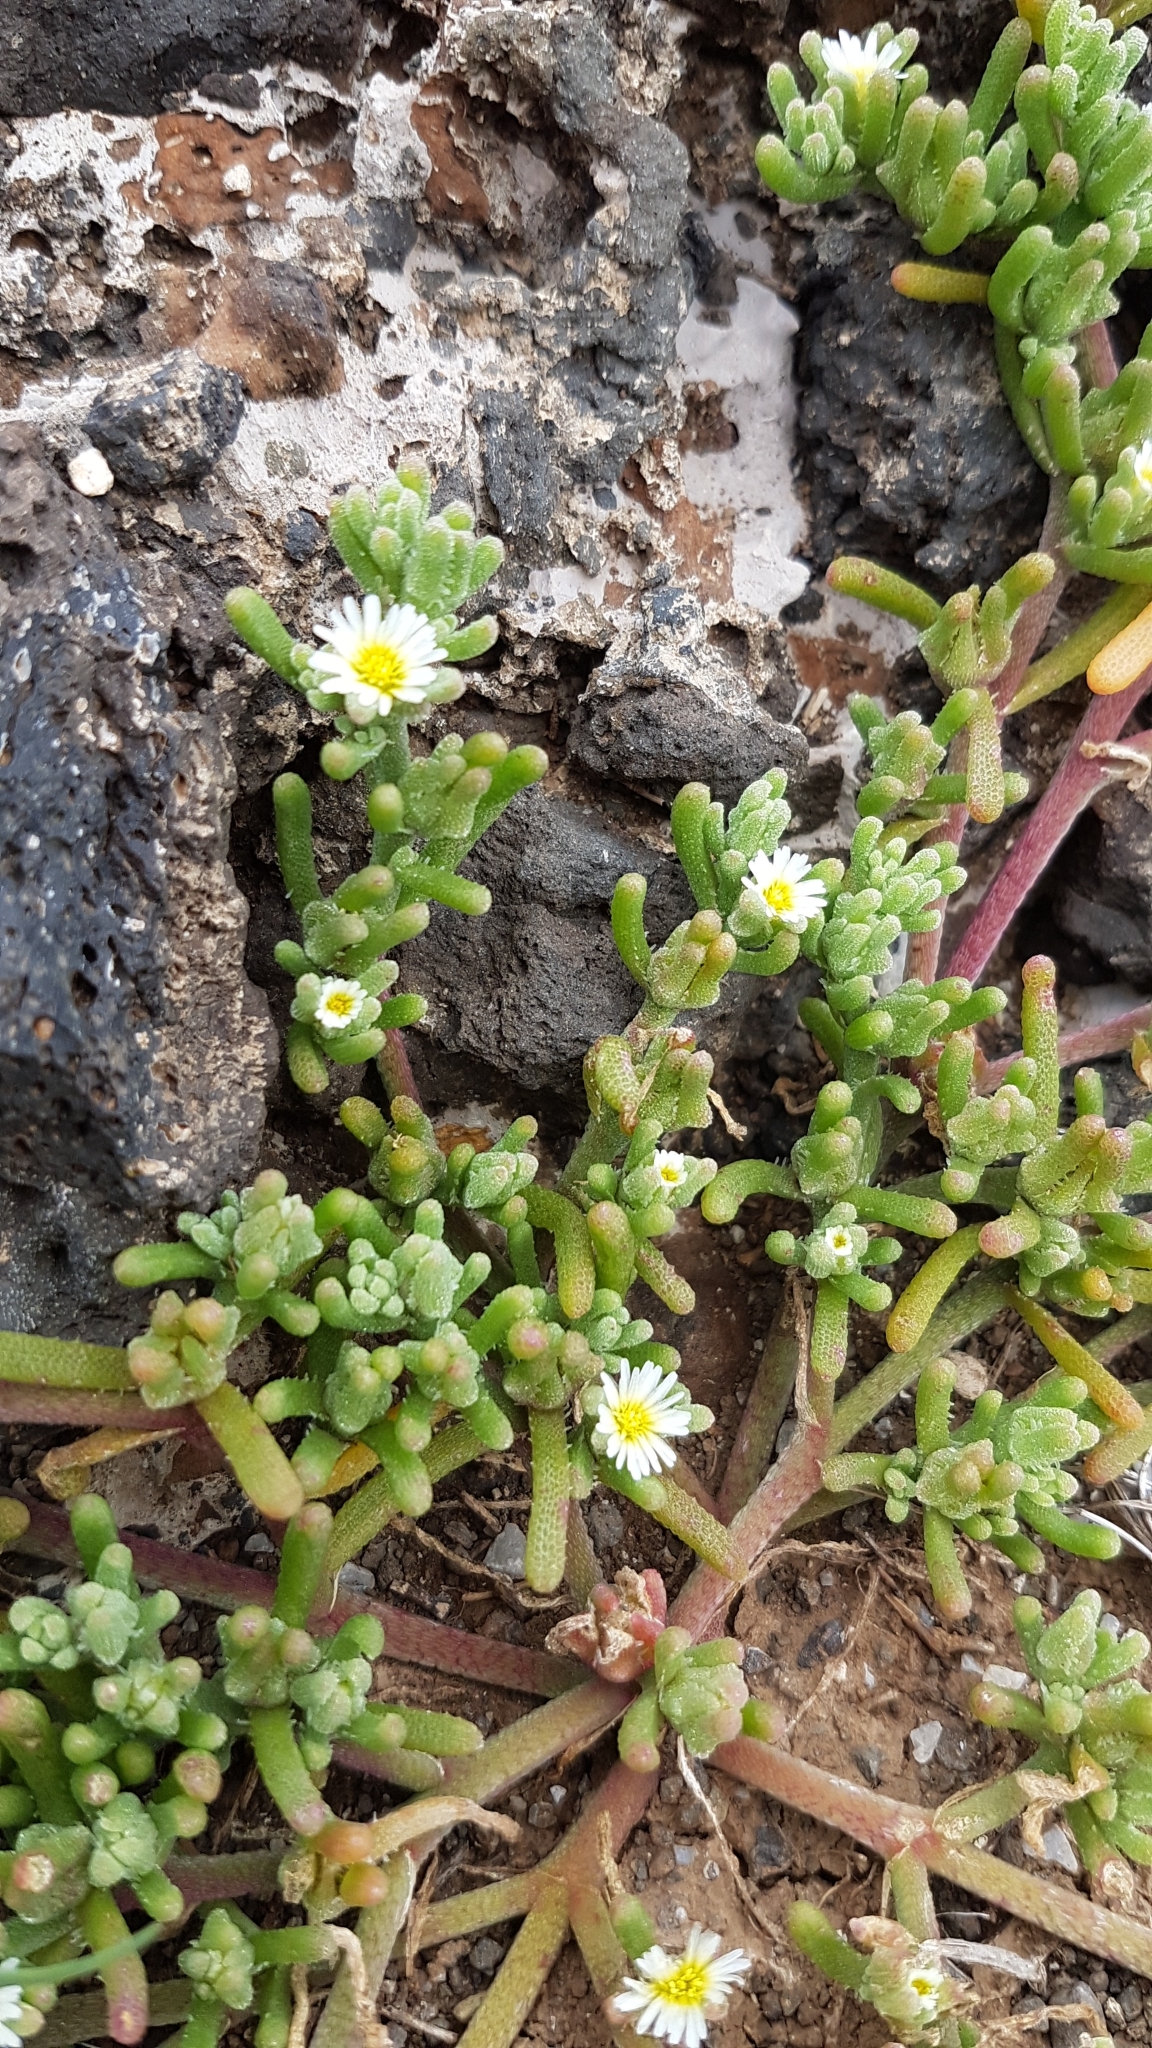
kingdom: Plantae
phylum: Tracheophyta
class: Magnoliopsida
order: Caryophyllales
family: Aizoaceae
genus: Mesembryanthemum
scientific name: Mesembryanthemum nodiflorum
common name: Slenderleaf iceplant
